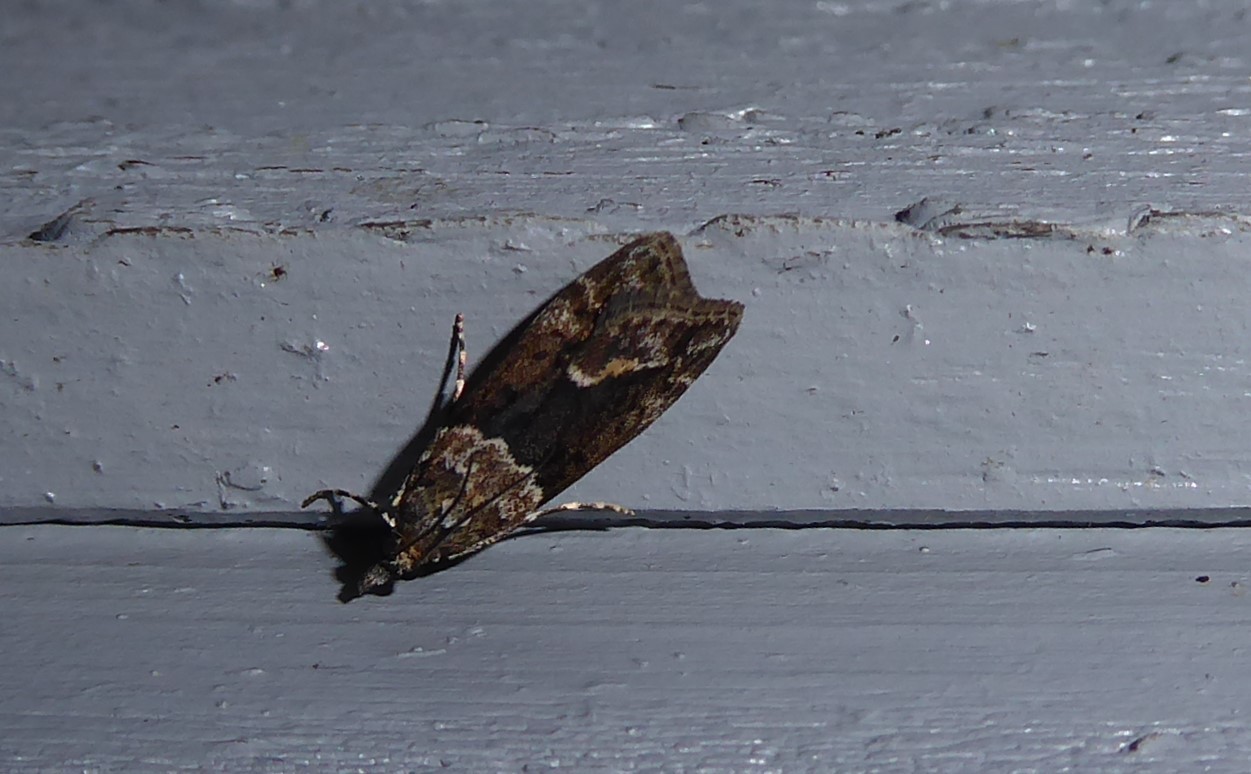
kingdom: Animalia
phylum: Arthropoda
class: Insecta
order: Lepidoptera
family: Crambidae
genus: Eudonia
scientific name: Eudonia submarginalis
